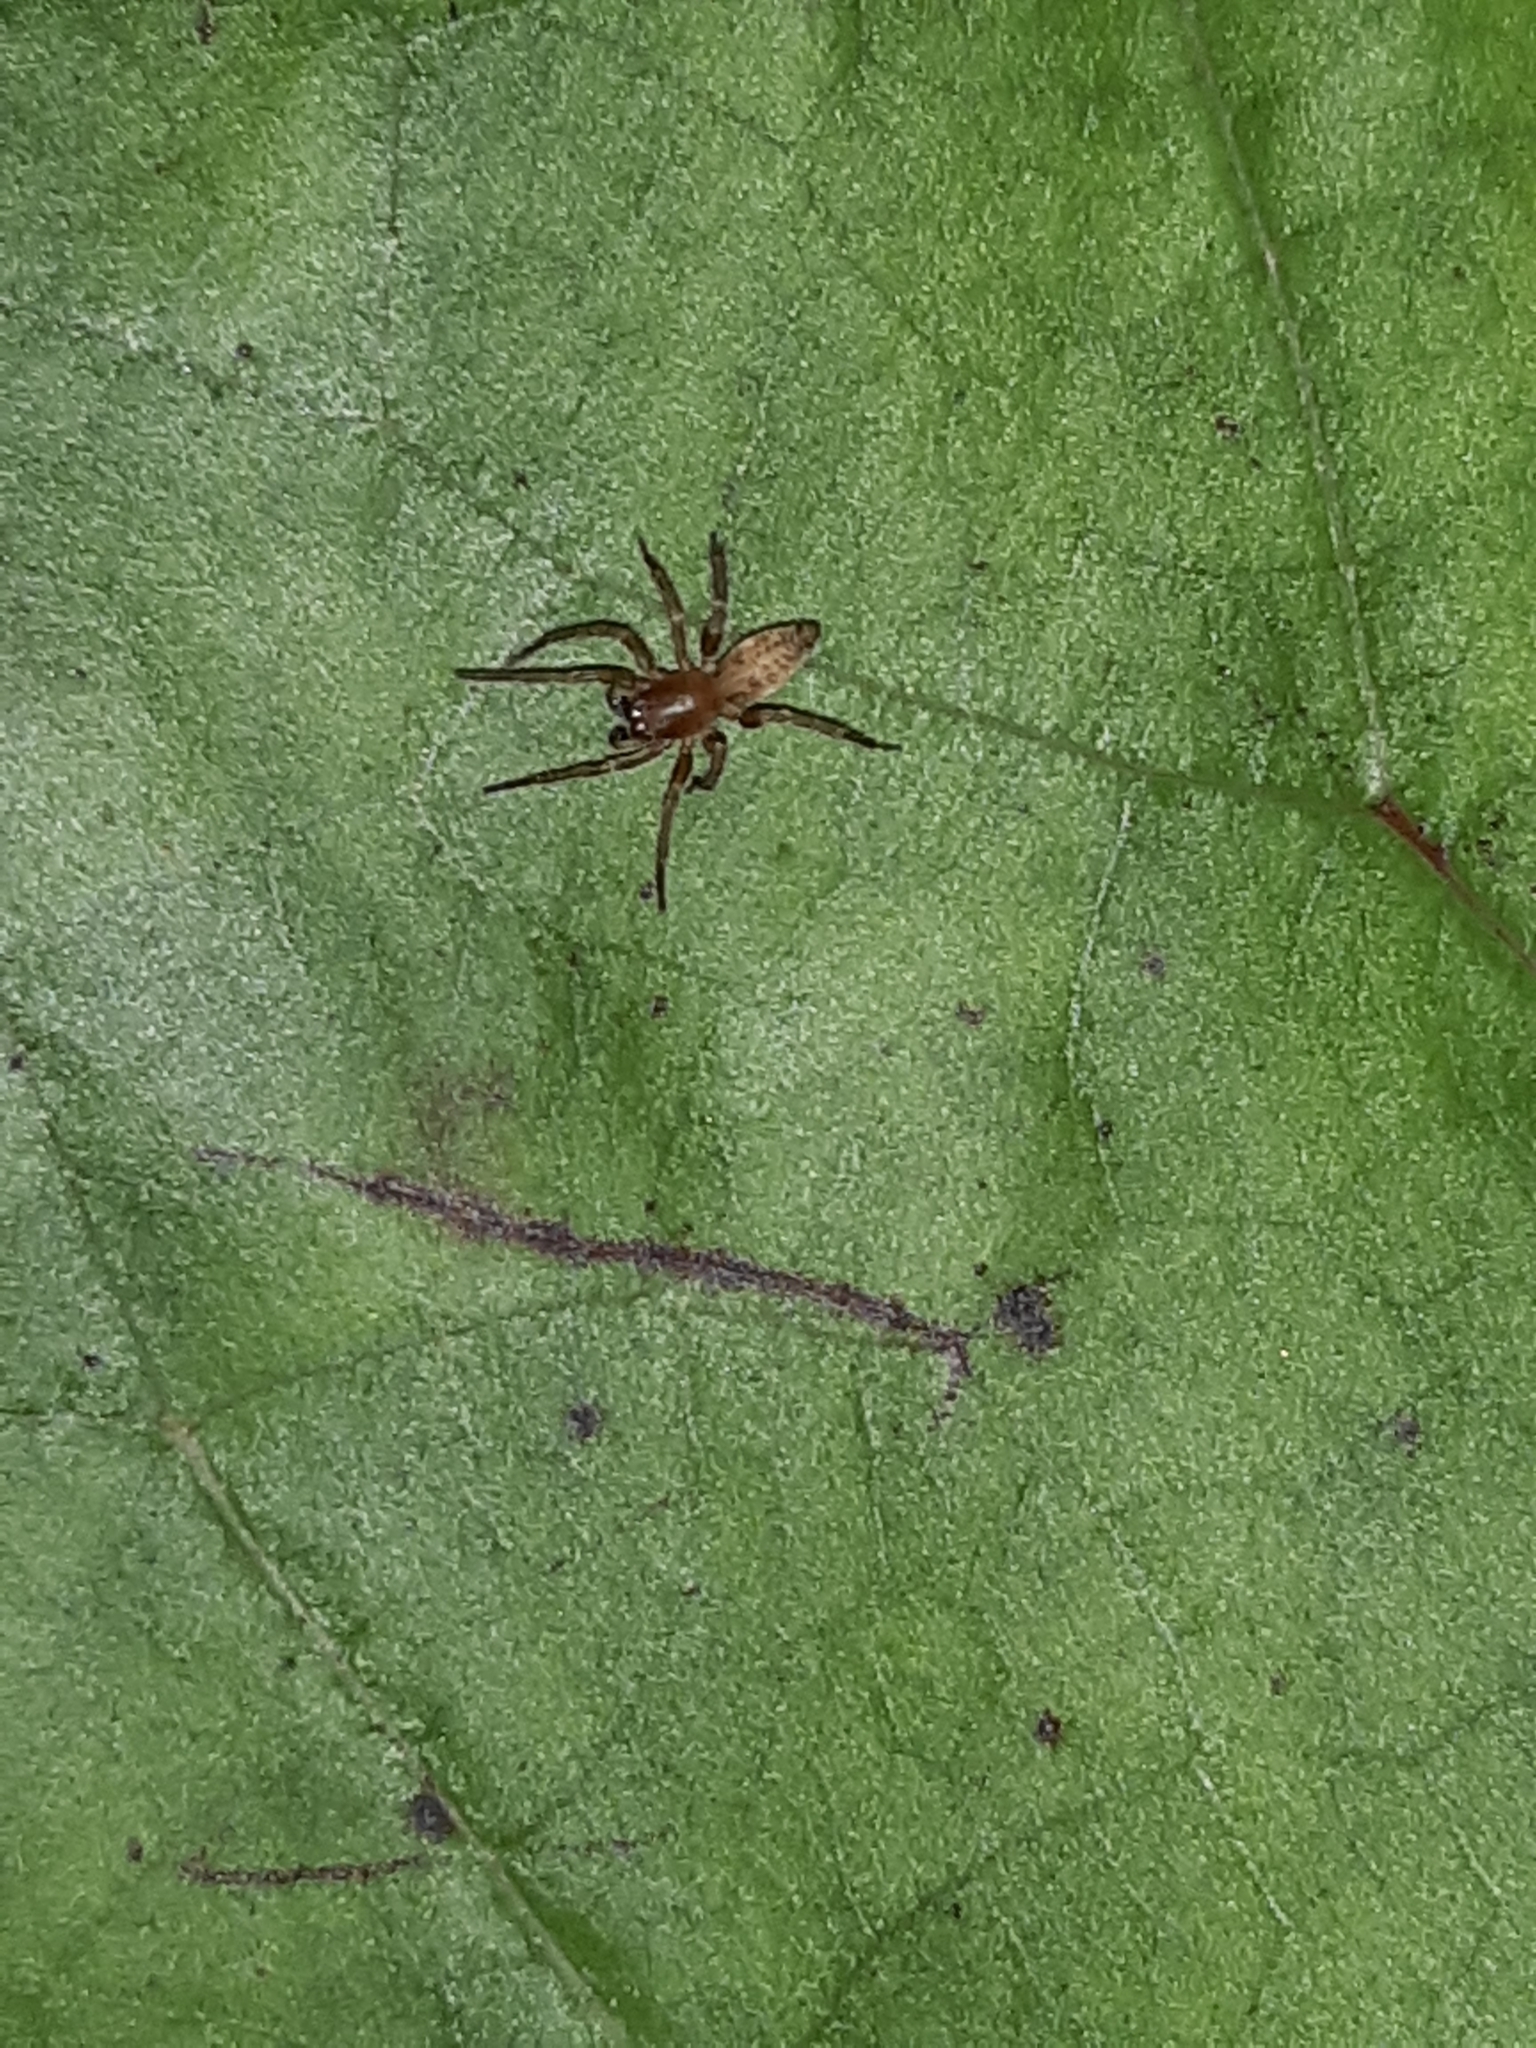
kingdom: Animalia
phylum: Arthropoda
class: Arachnida
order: Araneae
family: Clubionidae
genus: Clubiona
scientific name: Clubiona huttoni
